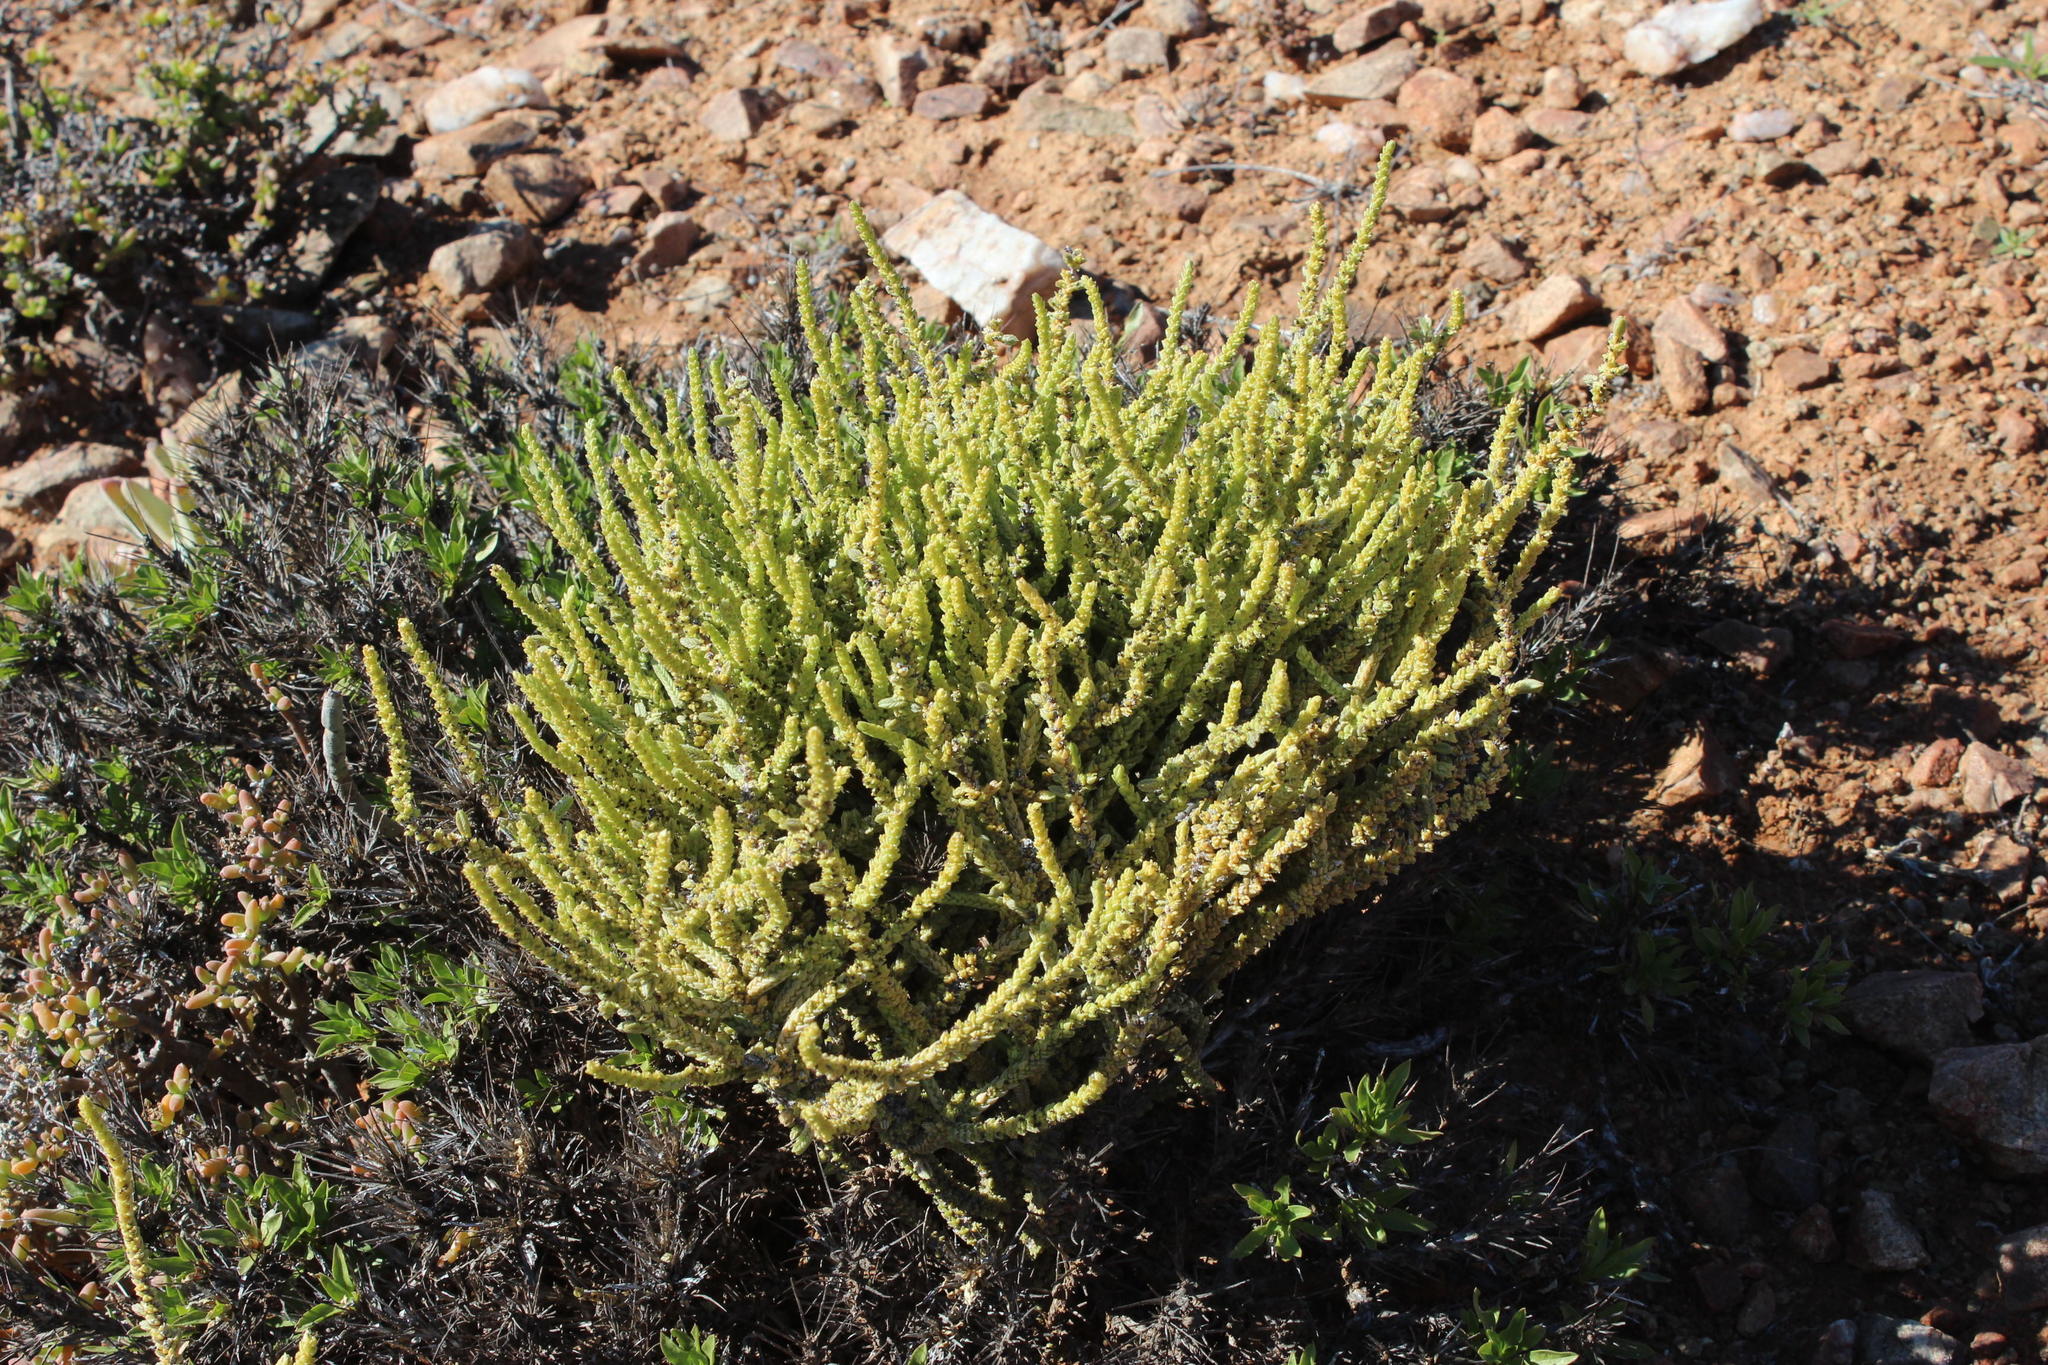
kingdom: Plantae
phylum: Tracheophyta
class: Magnoliopsida
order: Saxifragales
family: Crassulaceae
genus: Crassula
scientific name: Crassula muscosa
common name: Toy-cypress
